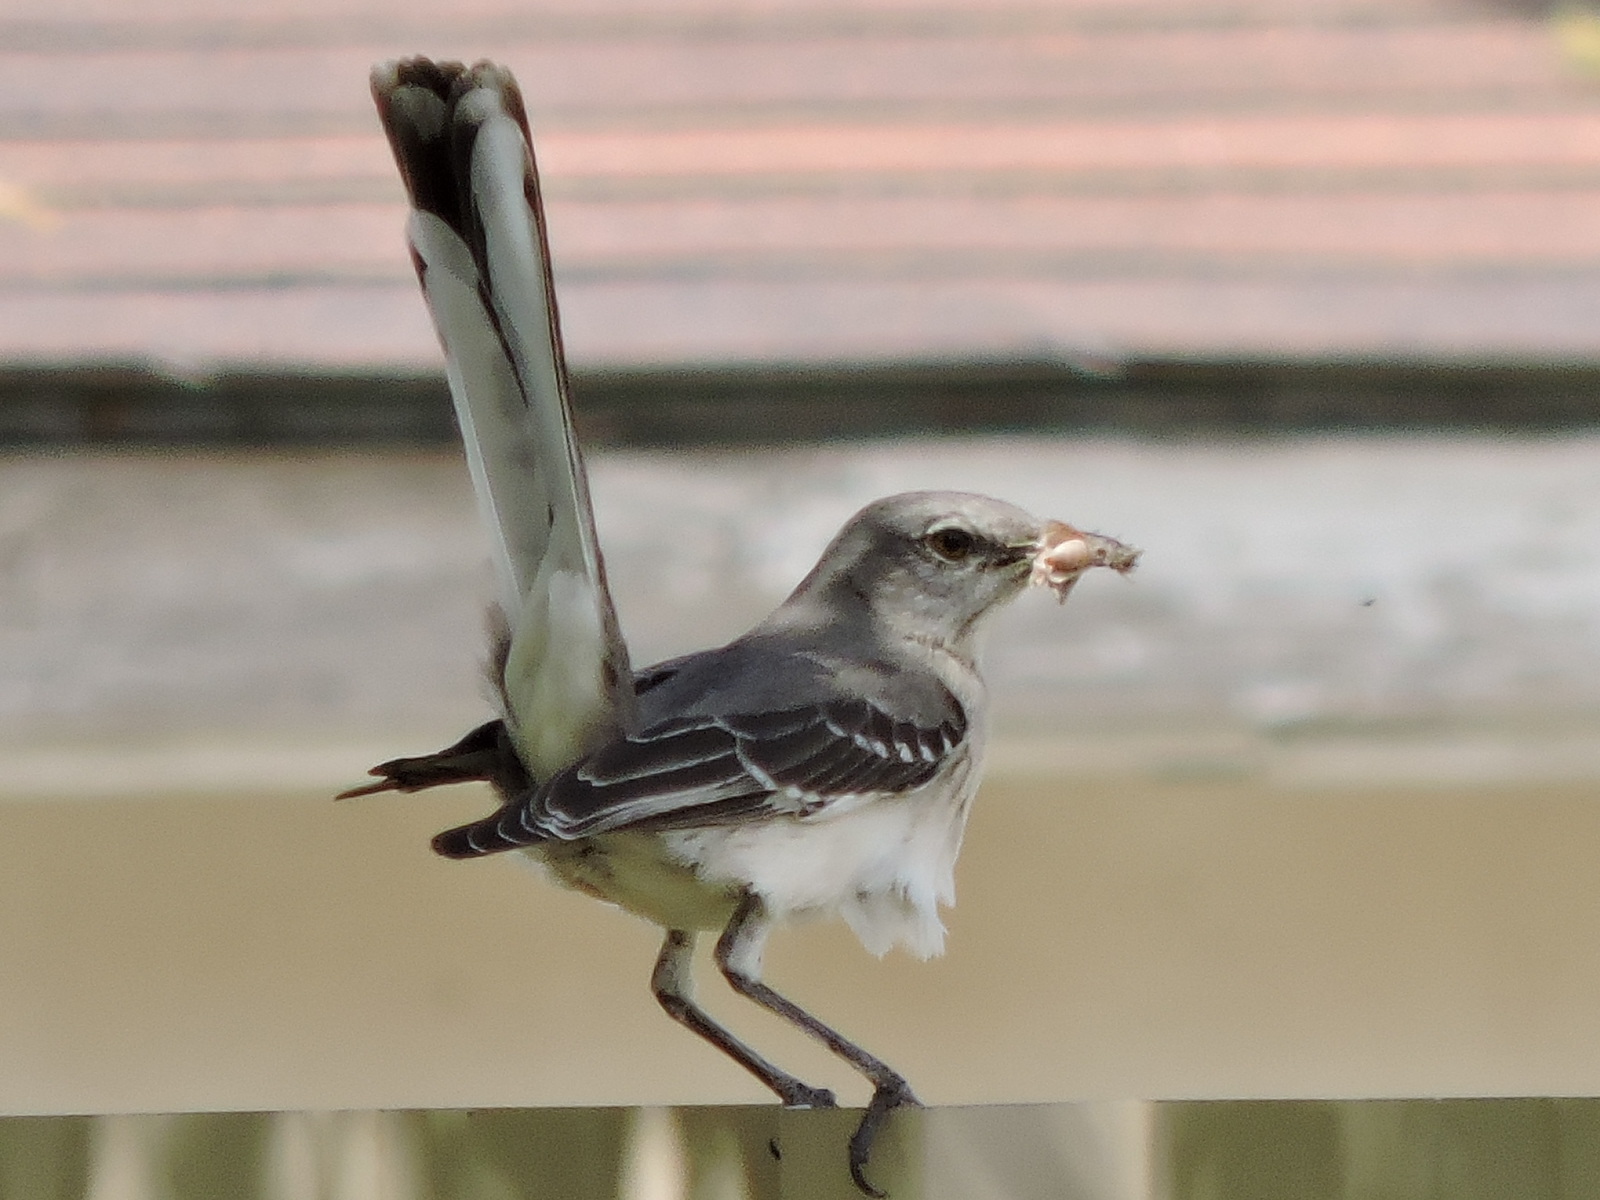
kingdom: Animalia
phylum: Chordata
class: Aves
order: Passeriformes
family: Mimidae
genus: Mimus
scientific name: Mimus polyglottos
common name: Northern mockingbird
